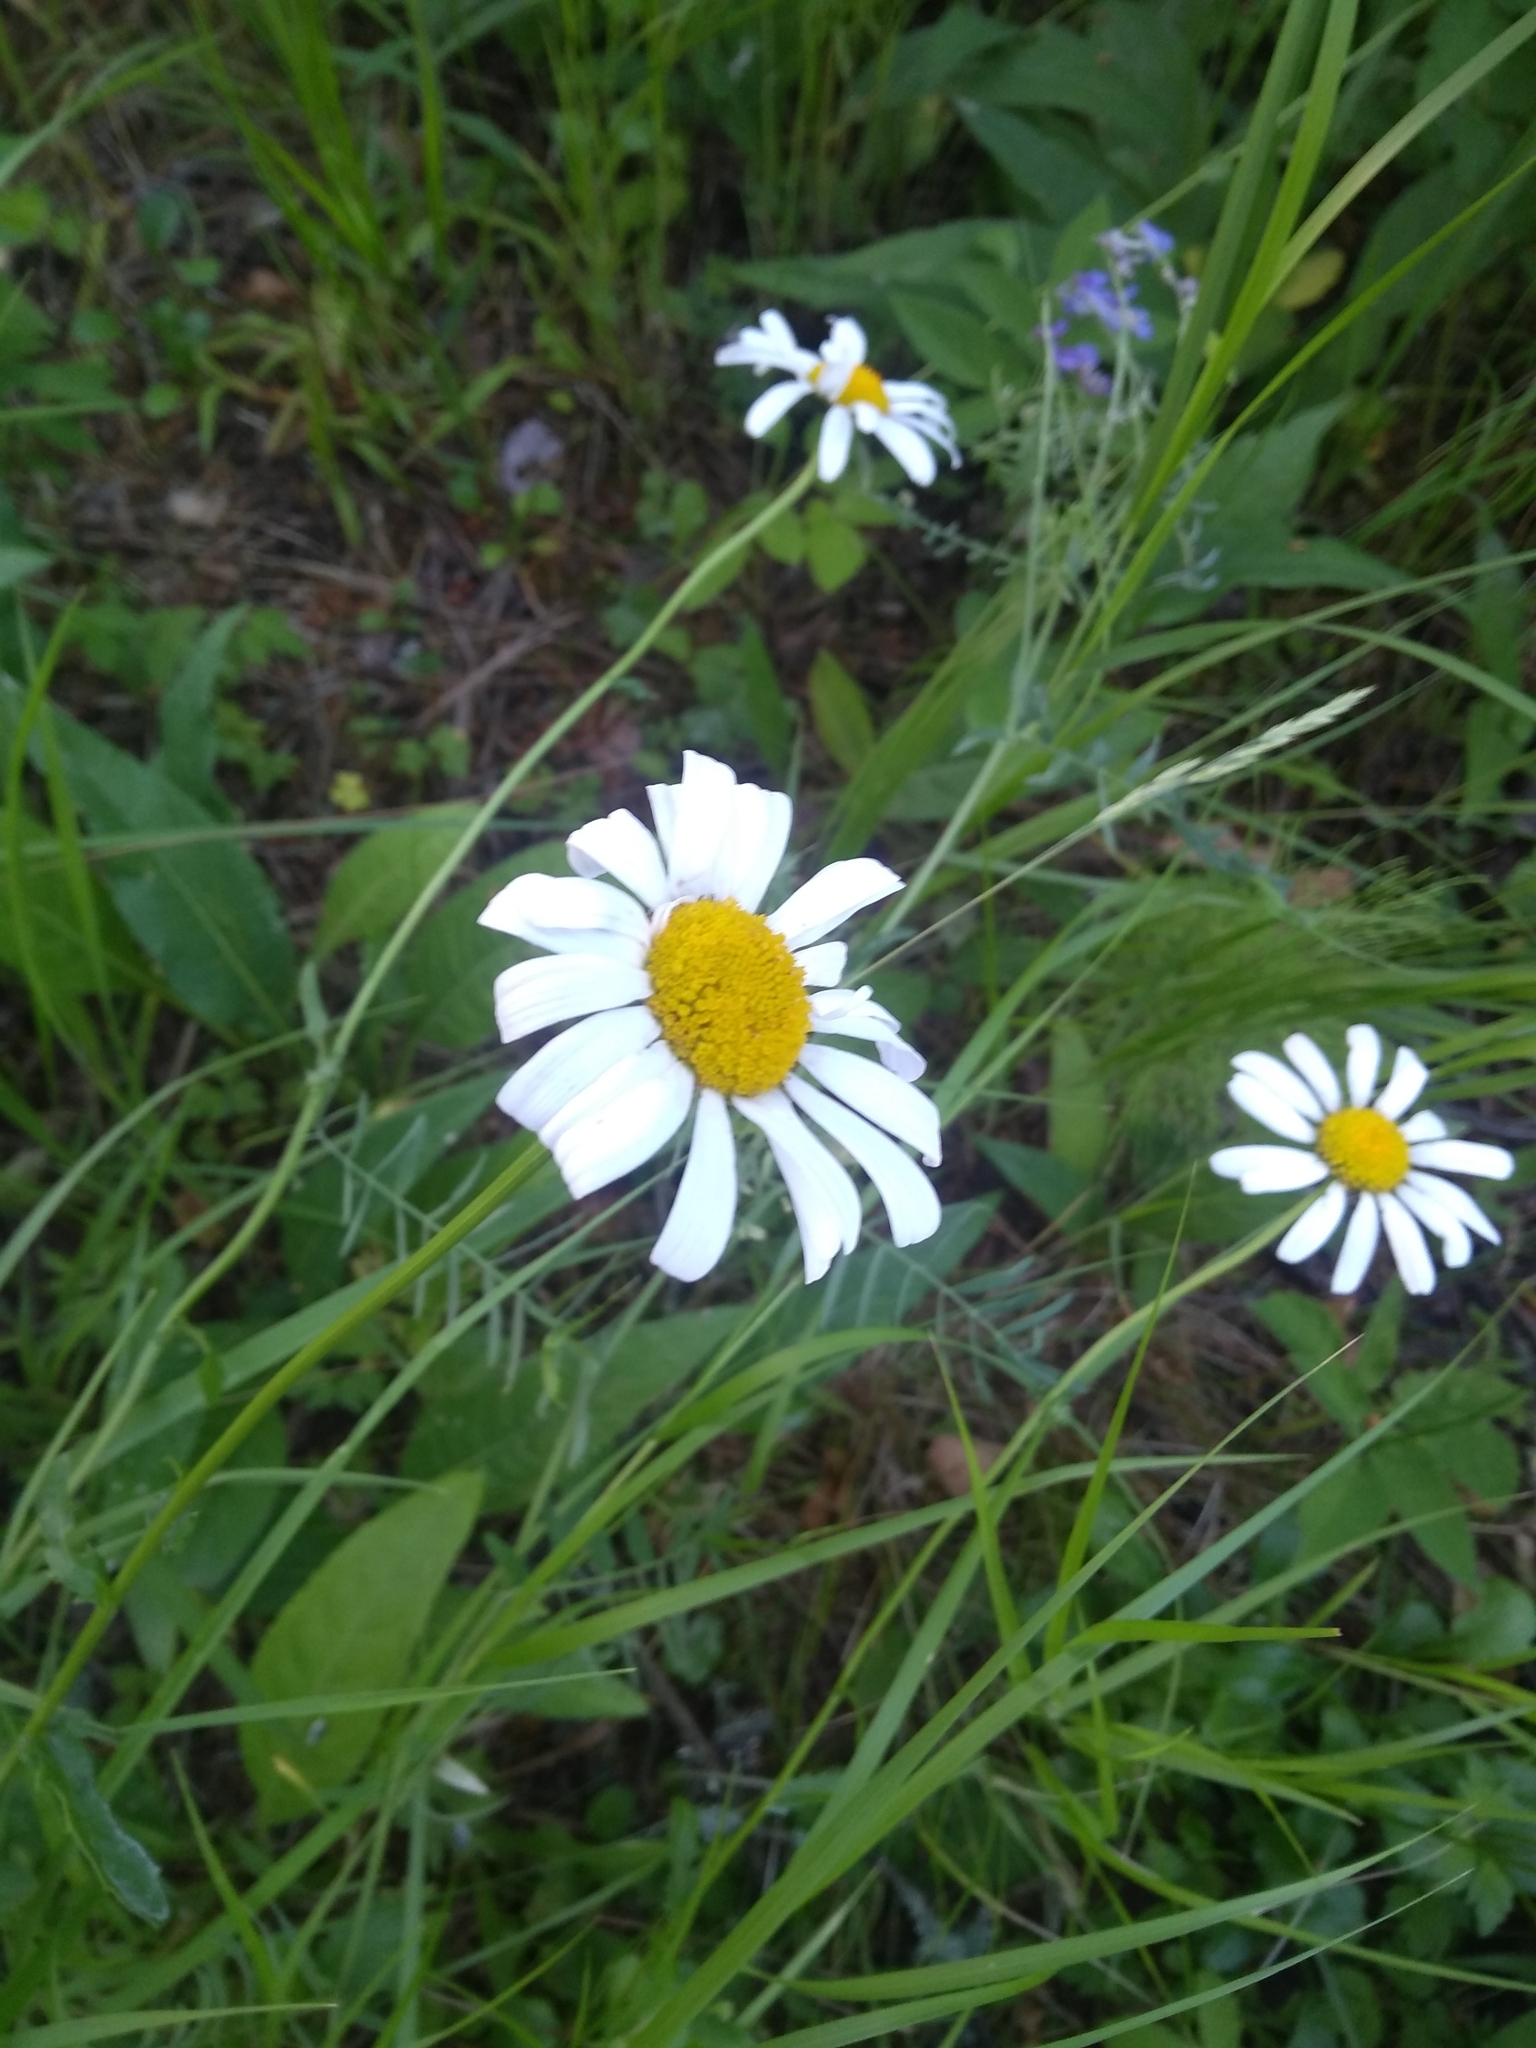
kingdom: Plantae
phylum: Tracheophyta
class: Magnoliopsida
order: Asterales
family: Asteraceae
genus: Leucanthemum
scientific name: Leucanthemum vulgare
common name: Oxeye daisy
